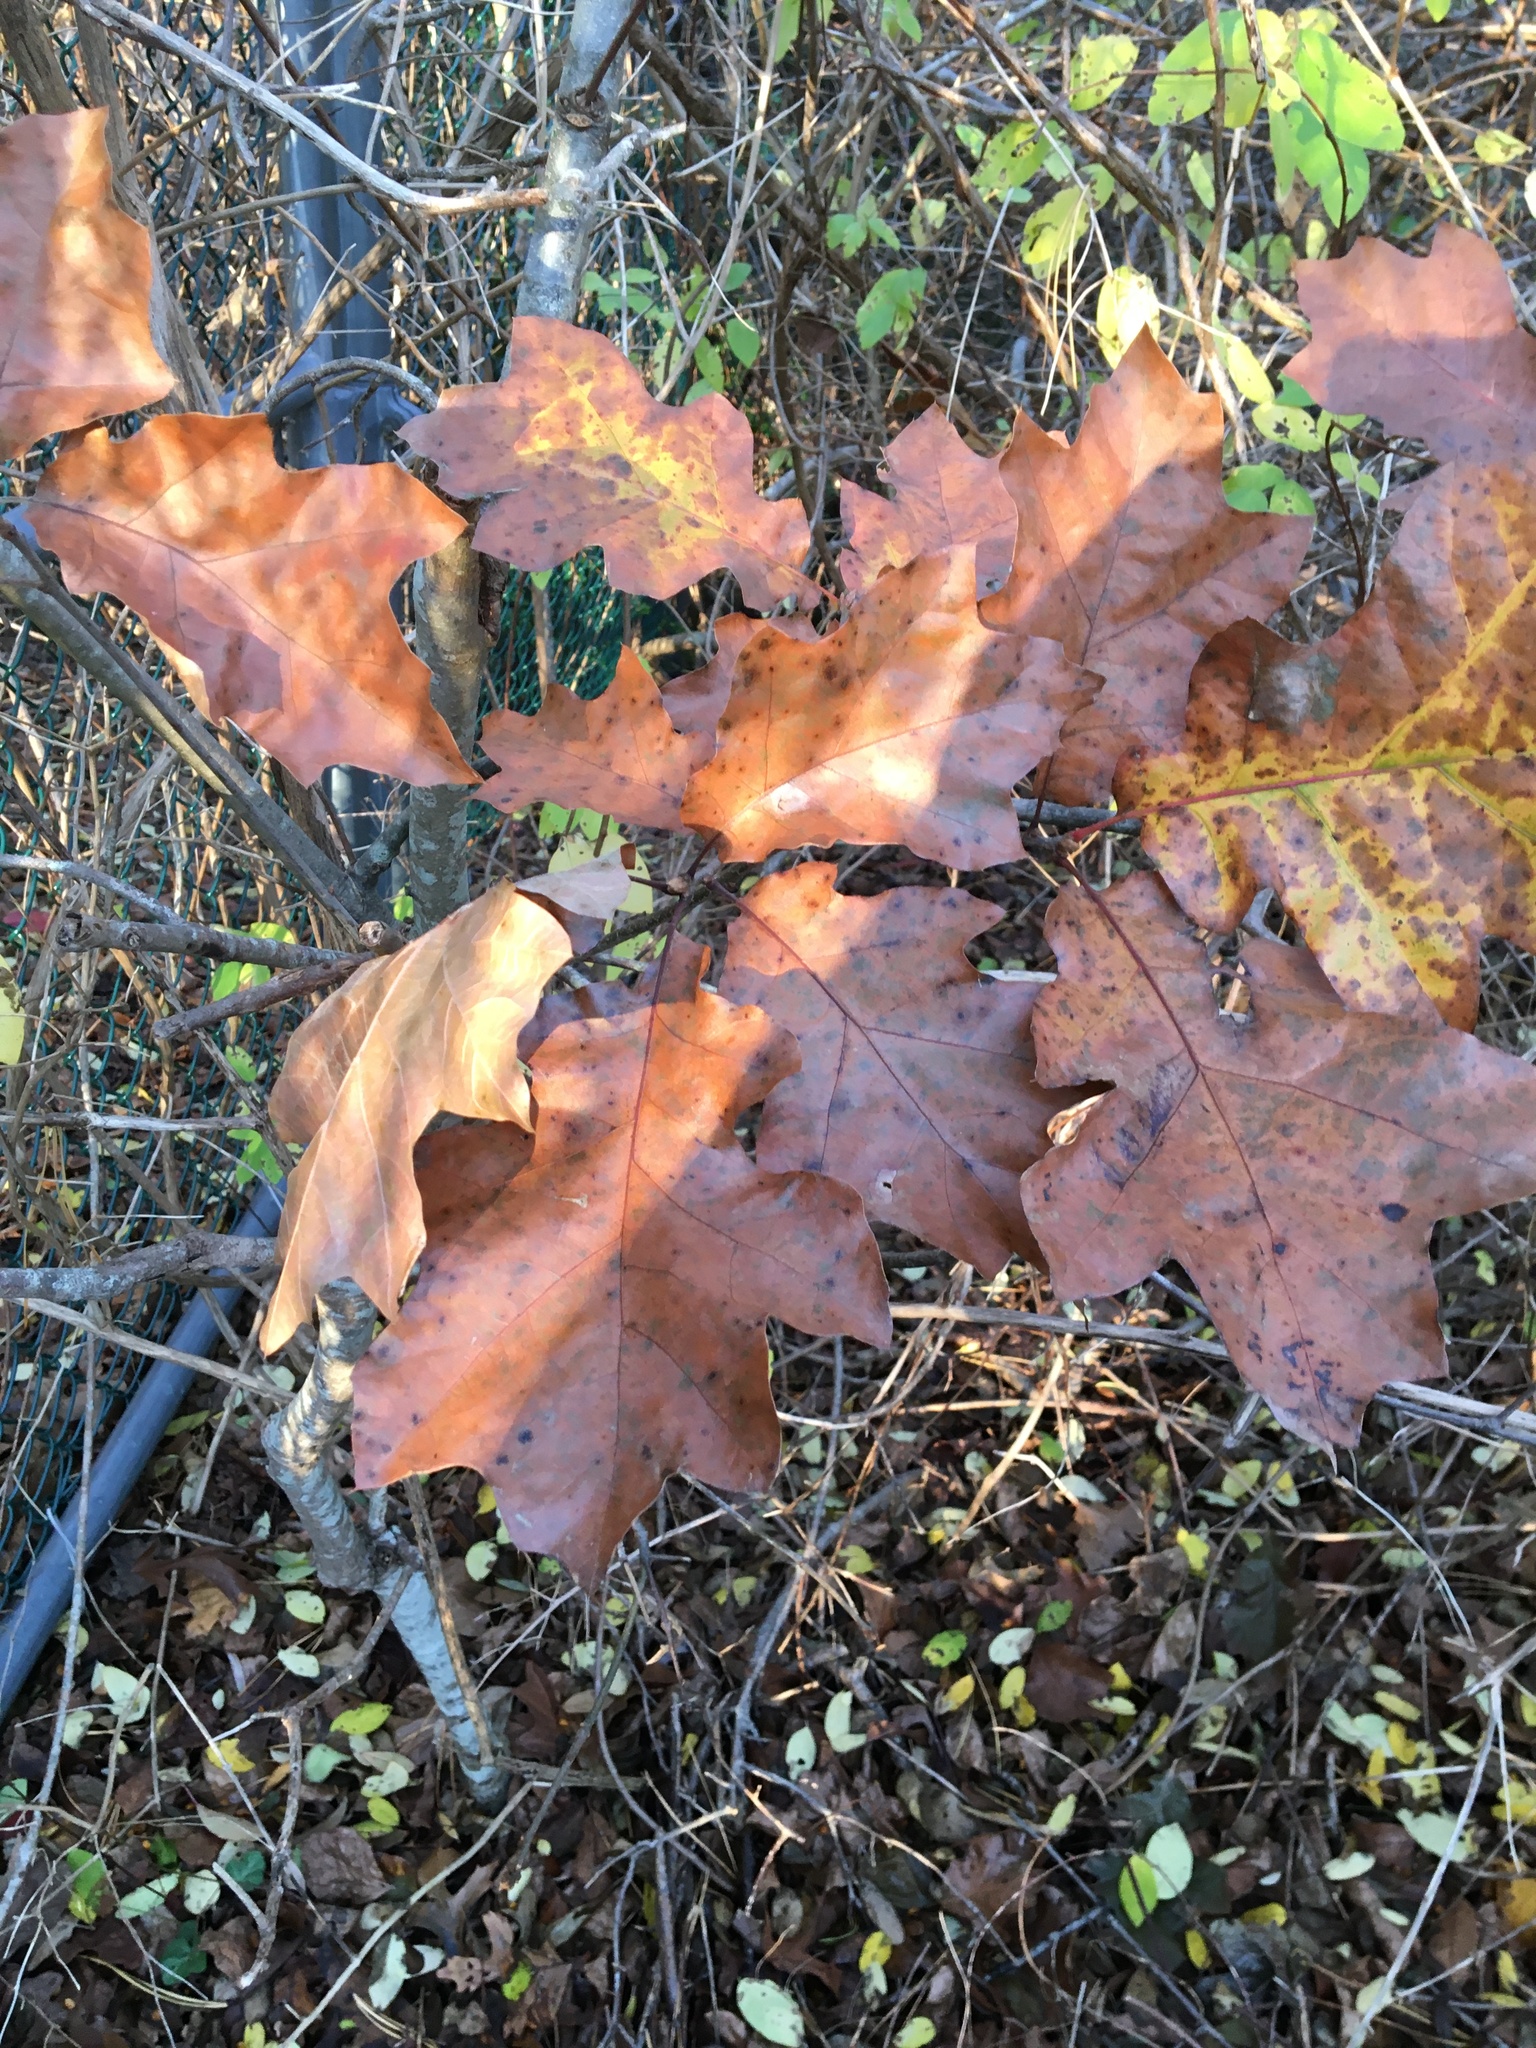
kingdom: Plantae
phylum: Tracheophyta
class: Magnoliopsida
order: Fagales
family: Fagaceae
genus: Quercus
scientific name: Quercus velutina
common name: Black oak
